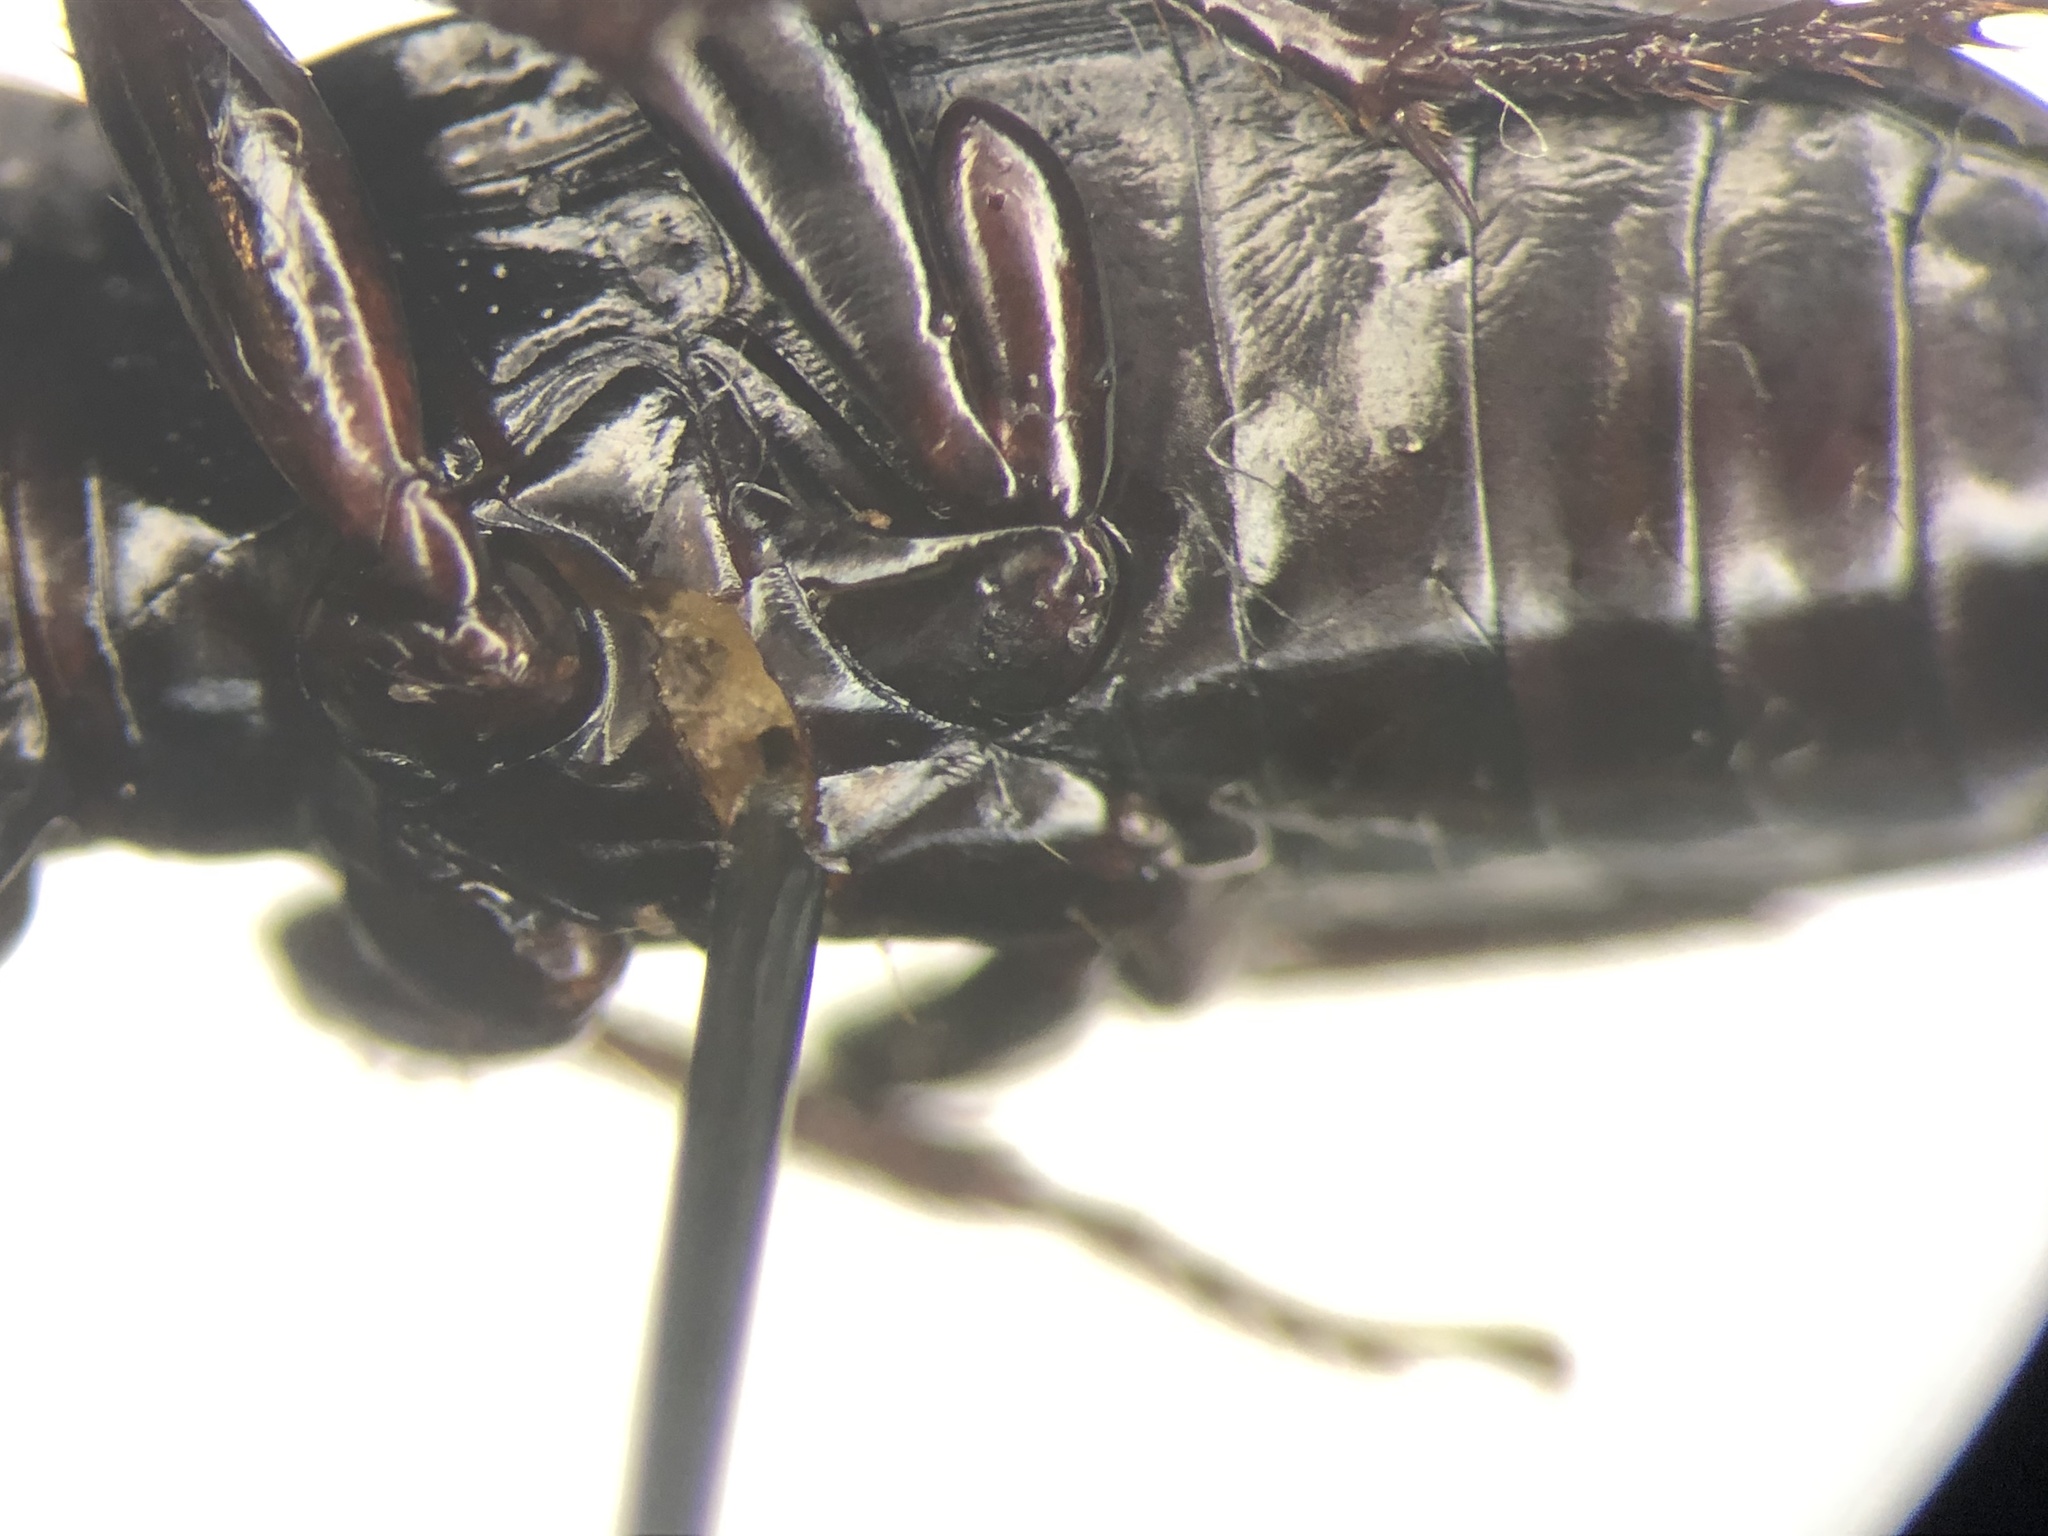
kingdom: Animalia
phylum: Arthropoda
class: Insecta
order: Coleoptera
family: Carabidae
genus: Pterostichus
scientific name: Pterostichus adoxus
